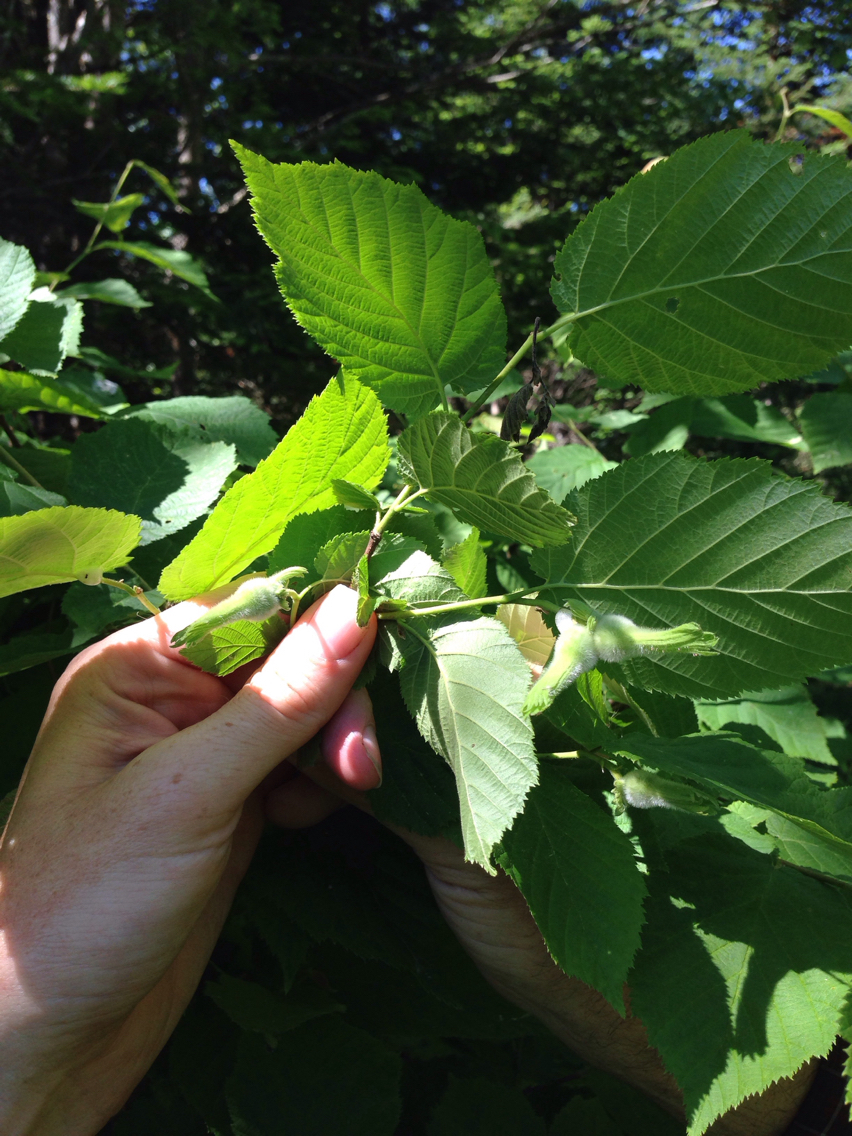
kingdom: Plantae
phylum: Tracheophyta
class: Magnoliopsida
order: Fagales
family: Betulaceae
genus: Corylus
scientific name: Corylus cornuta
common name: Beaked hazel
